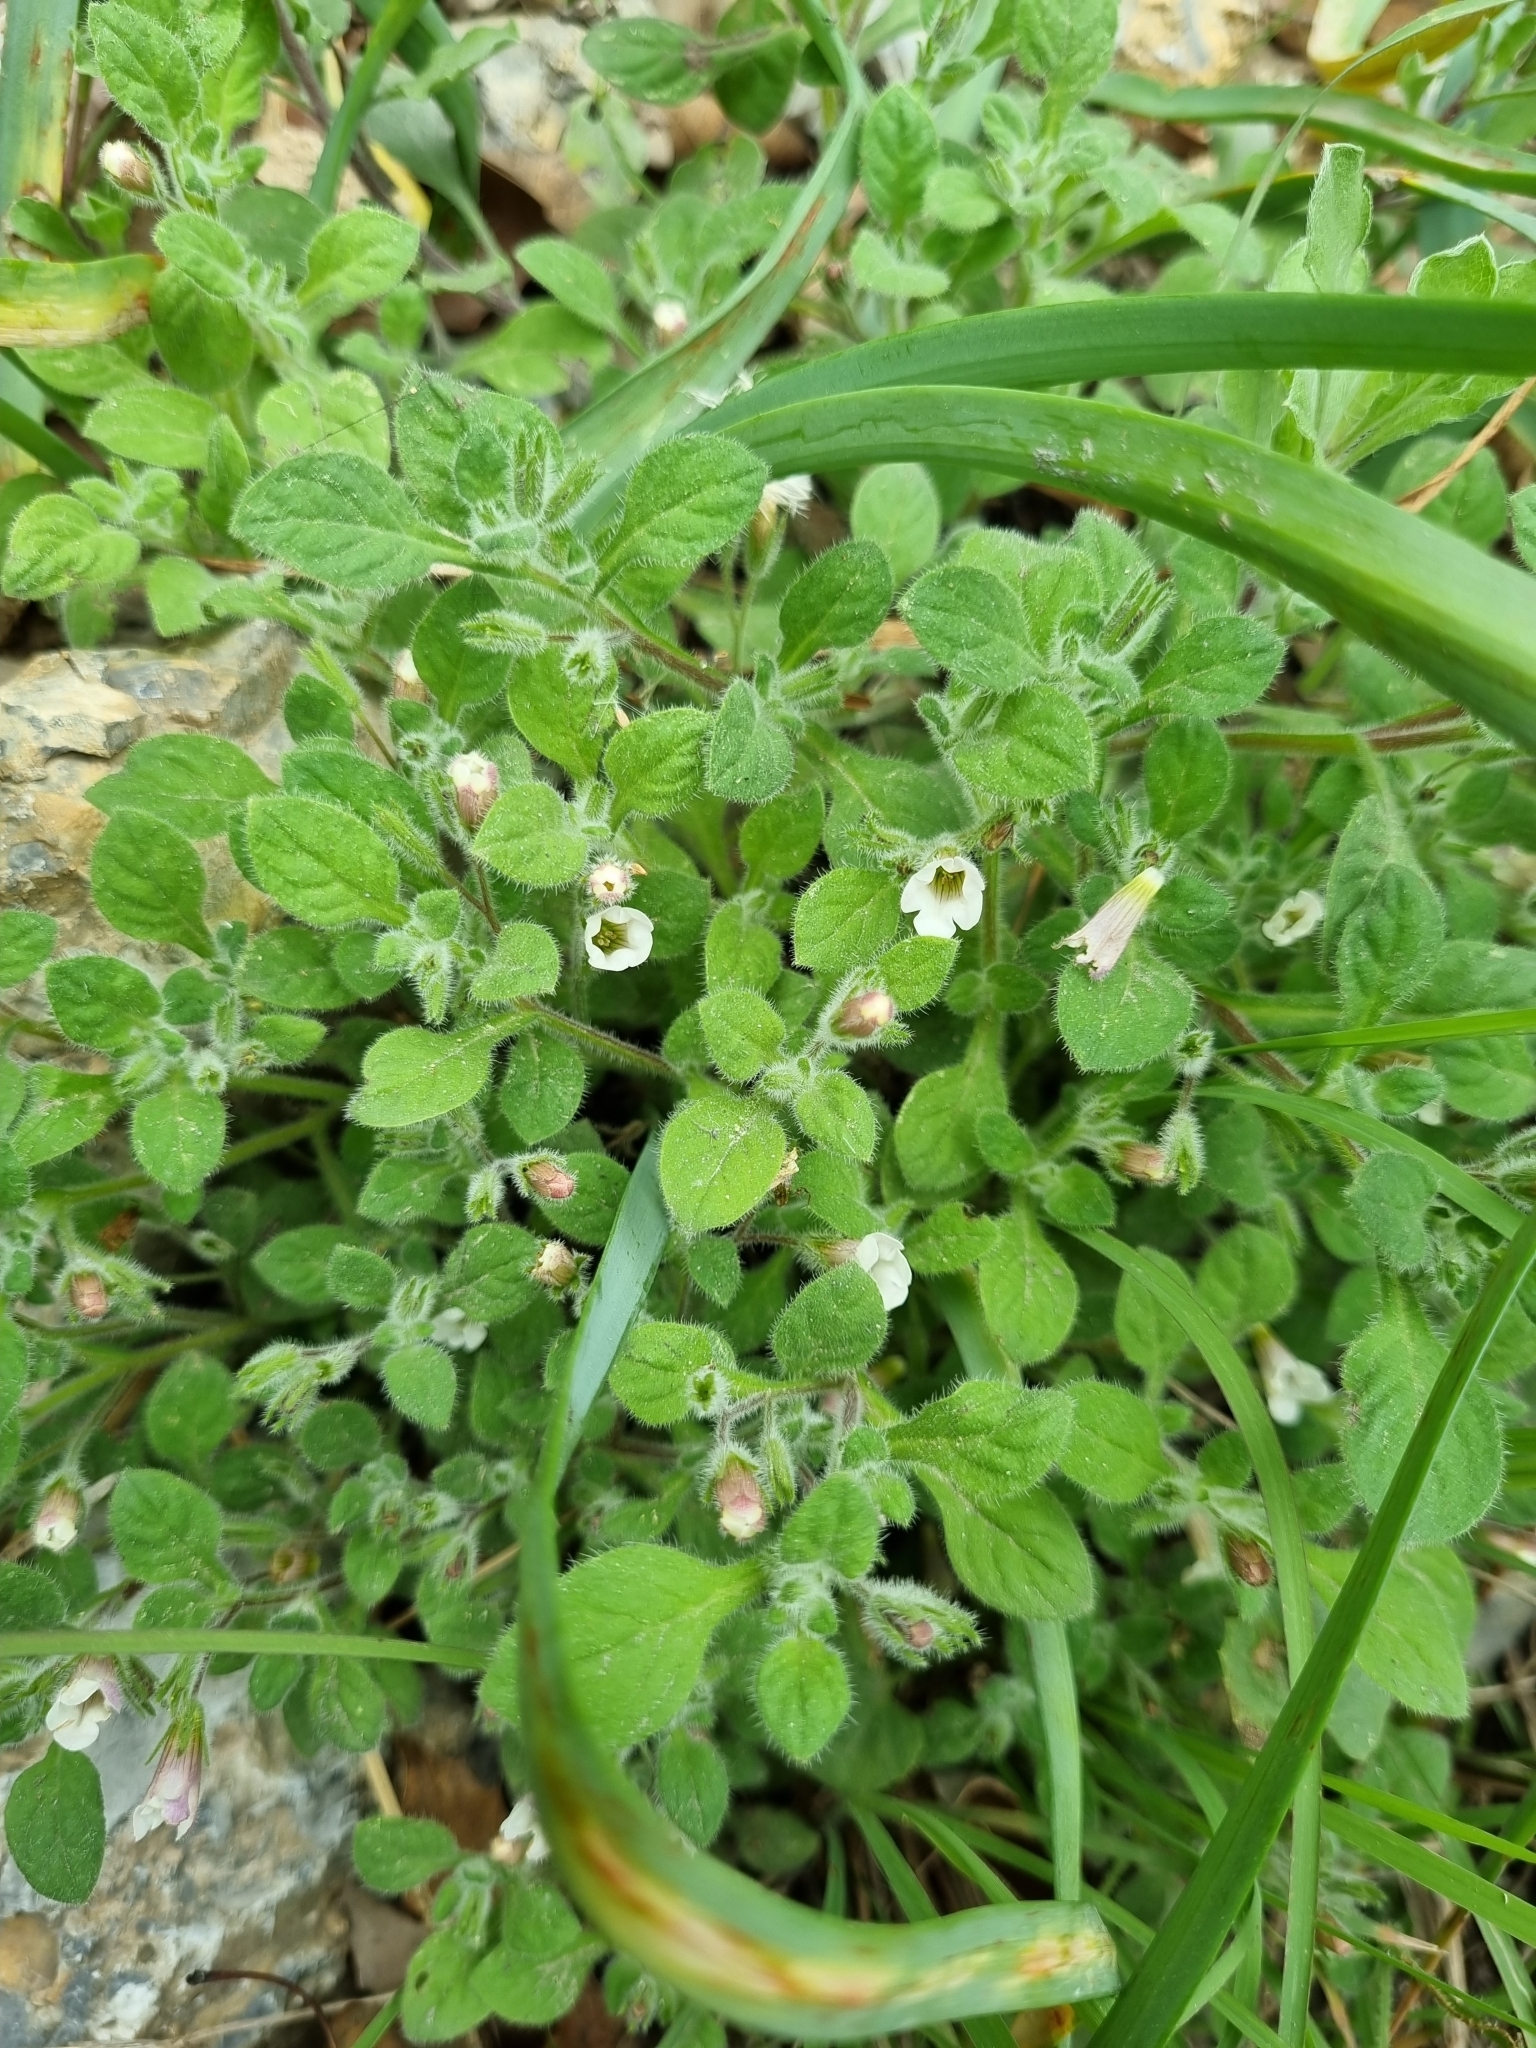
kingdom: Plantae
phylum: Tracheophyta
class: Magnoliopsida
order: Boraginales
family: Namaceae
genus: Nama
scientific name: Nama jamaicensis
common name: Jamaicanweed
